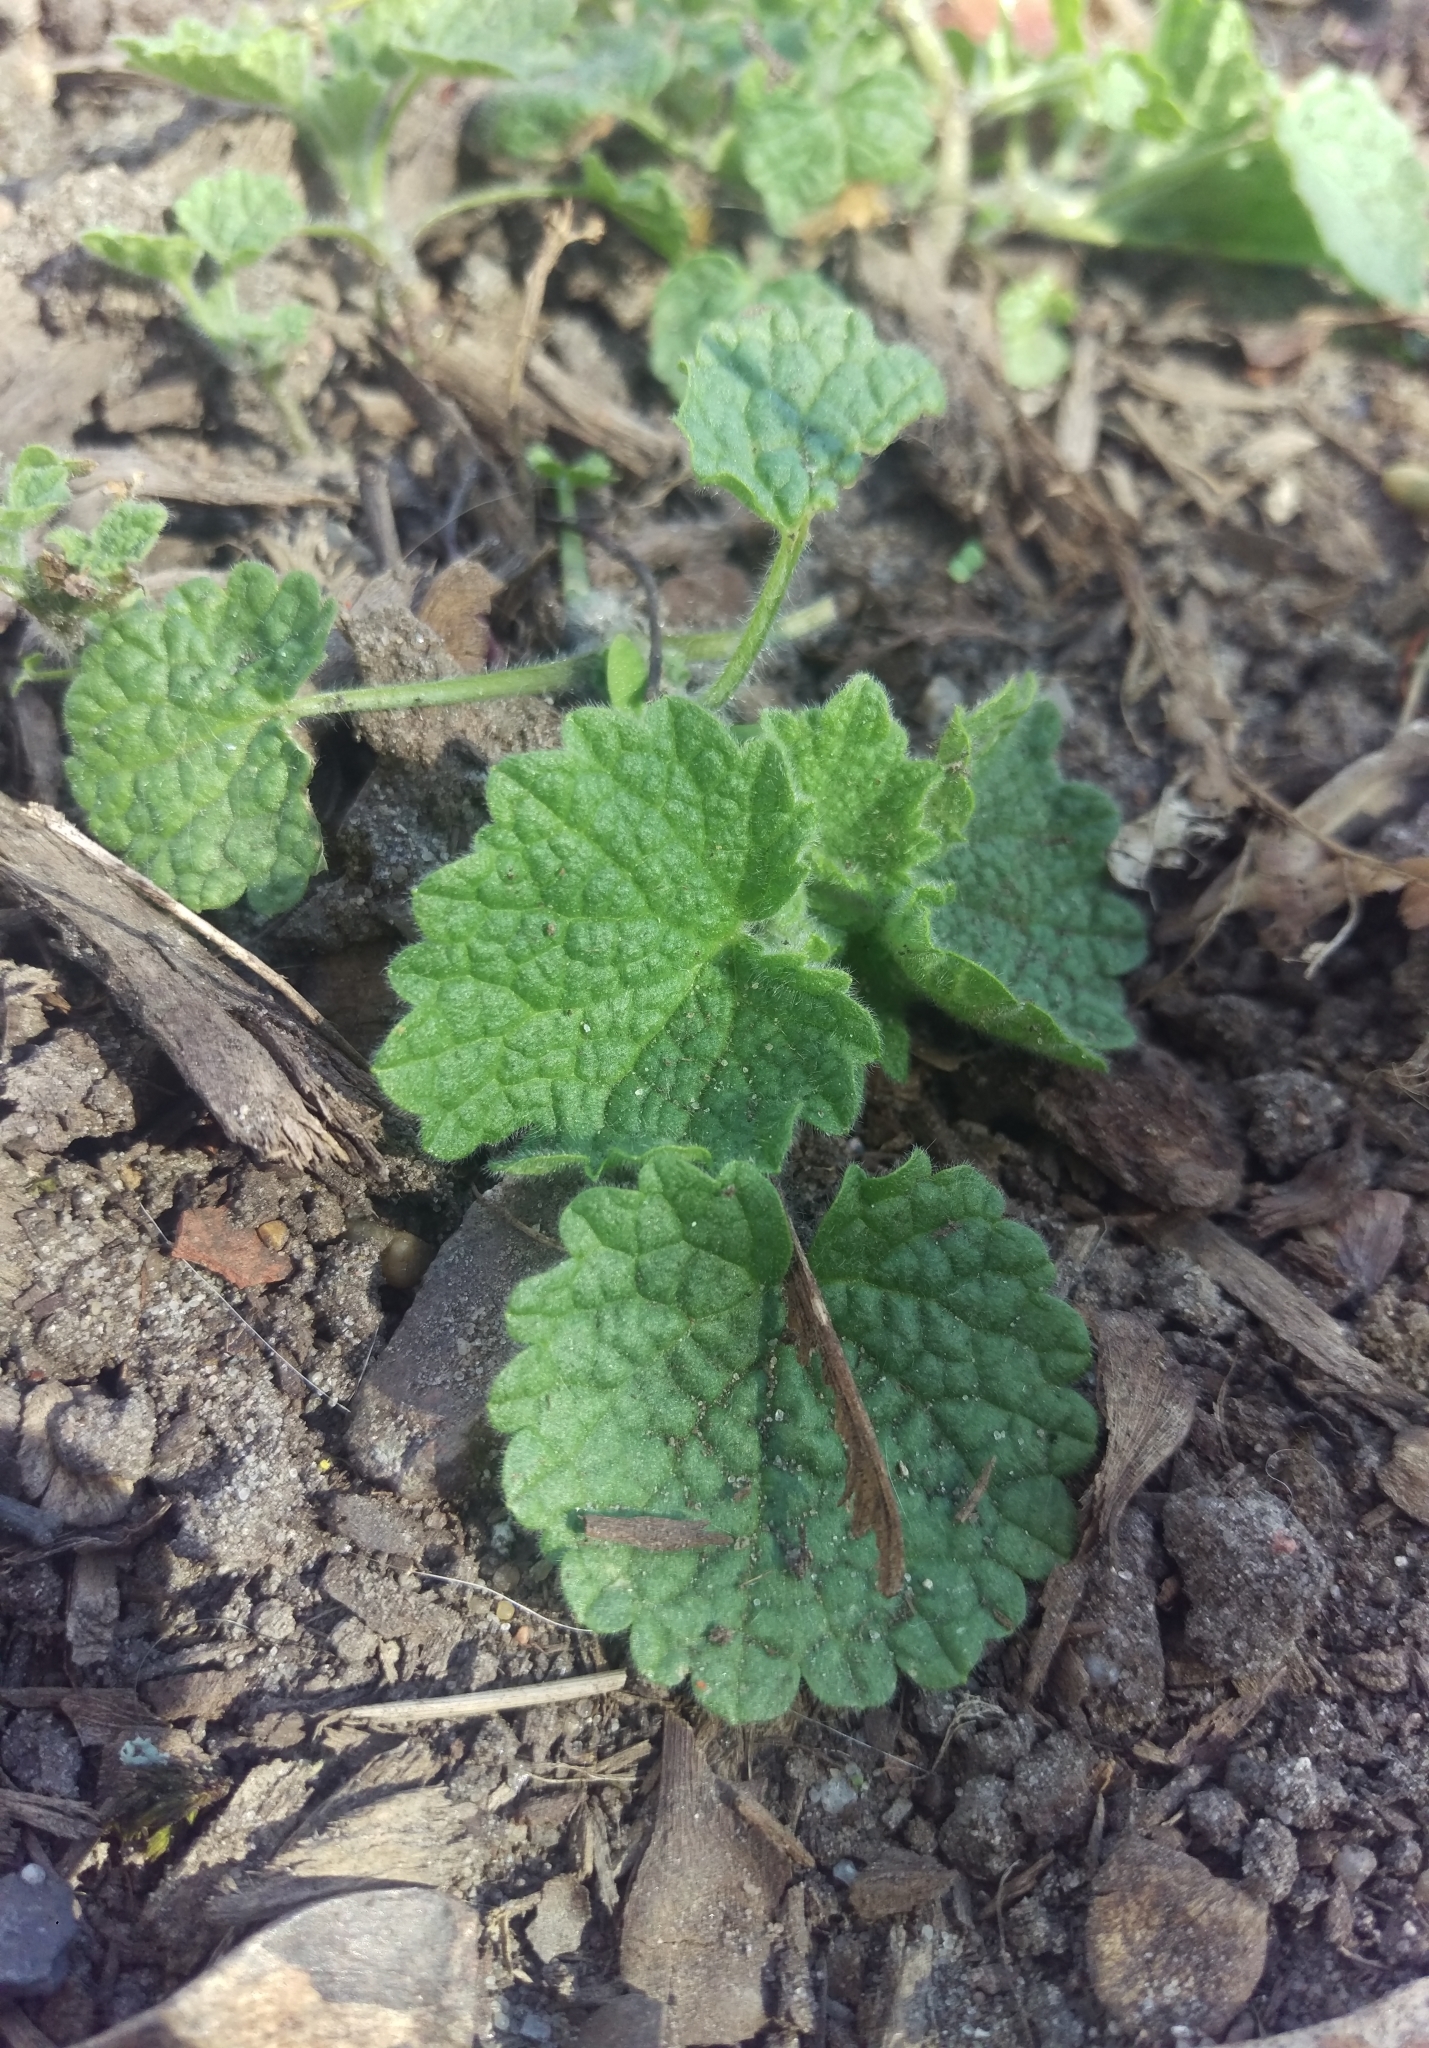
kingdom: Plantae
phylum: Tracheophyta
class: Magnoliopsida
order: Lamiales
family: Lamiaceae
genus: Ballota
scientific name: Ballota nigra
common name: Black horehound
